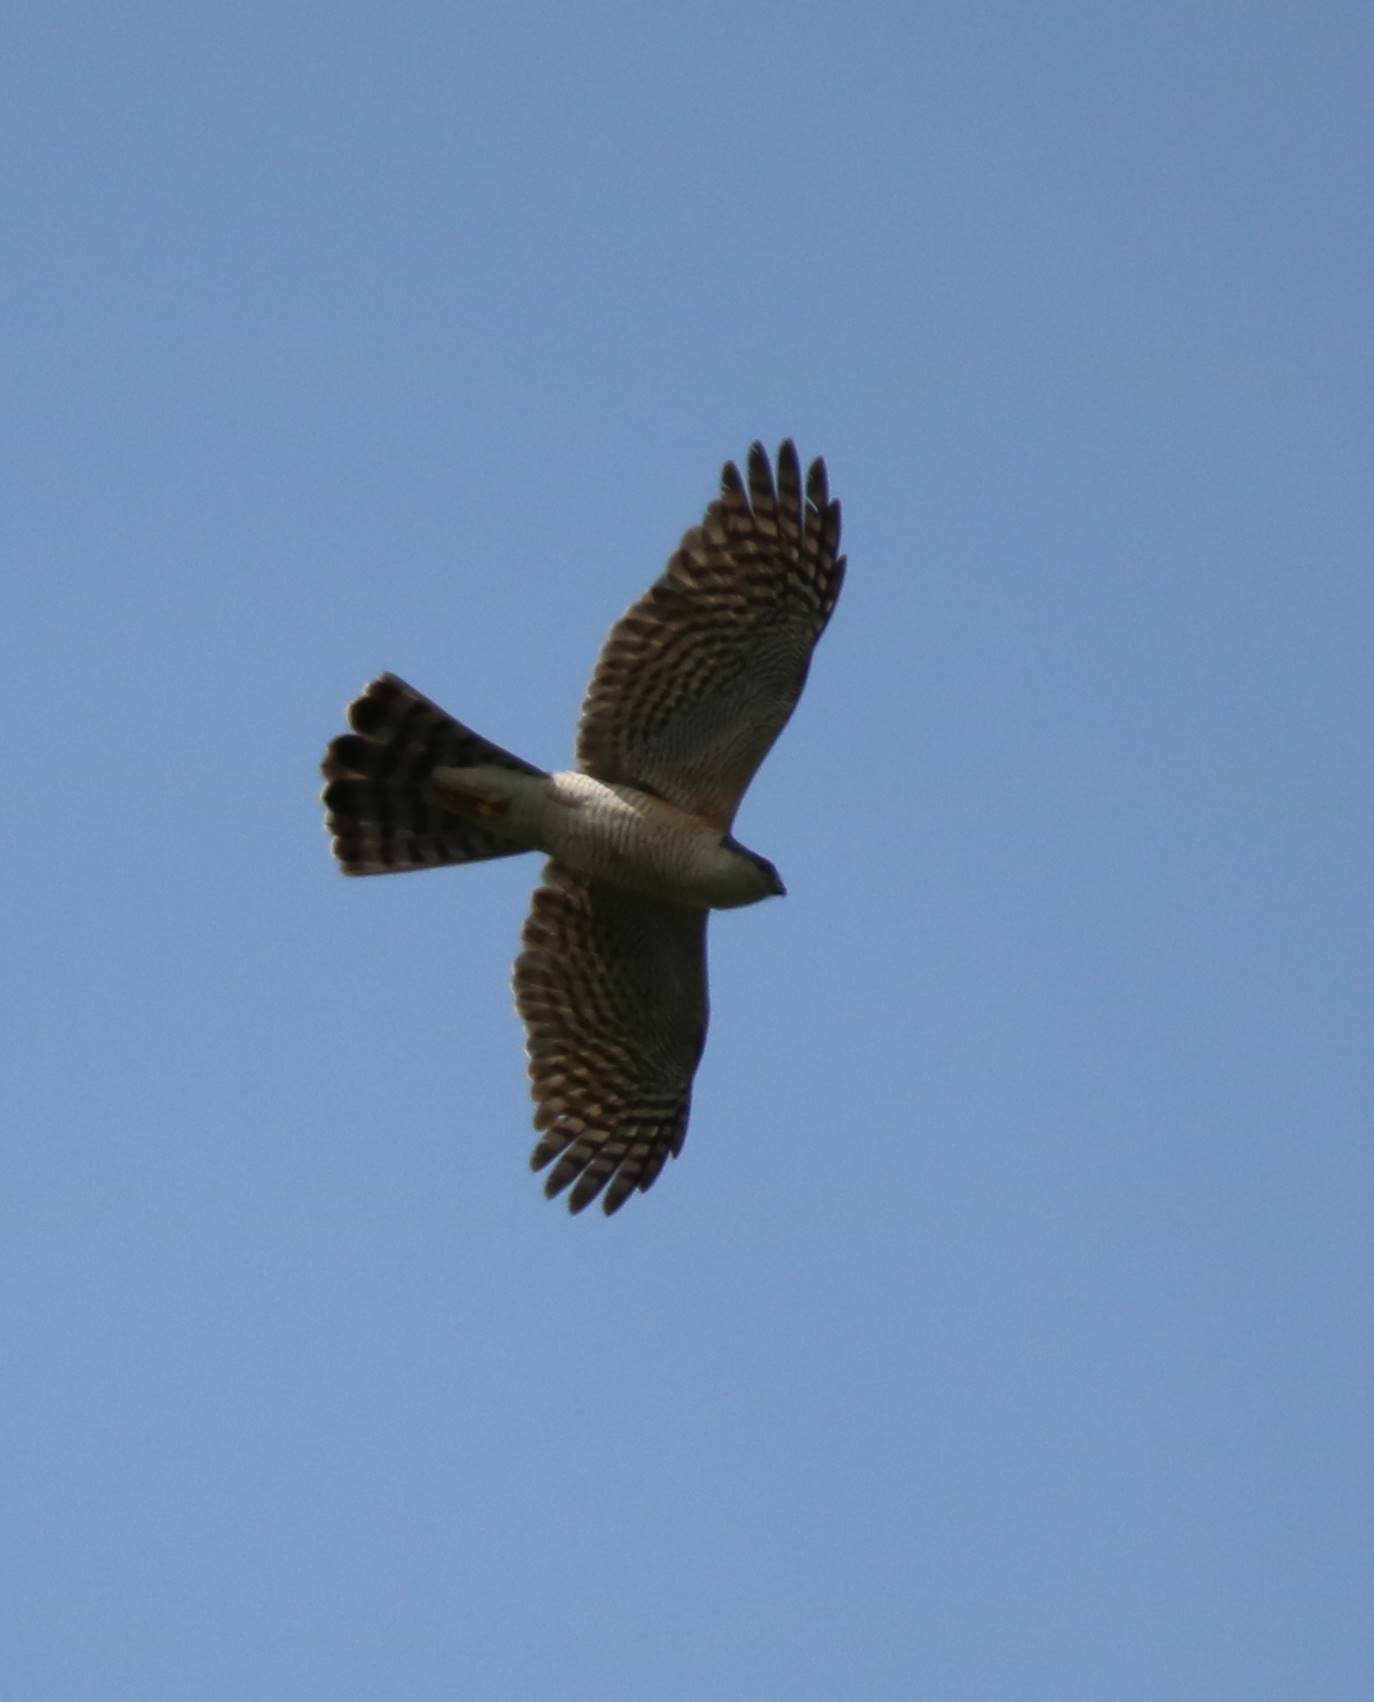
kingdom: Animalia
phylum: Chordata
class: Aves
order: Accipitriformes
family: Accipitridae
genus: Accipiter
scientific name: Accipiter nisus
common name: Eurasian sparrowhawk
